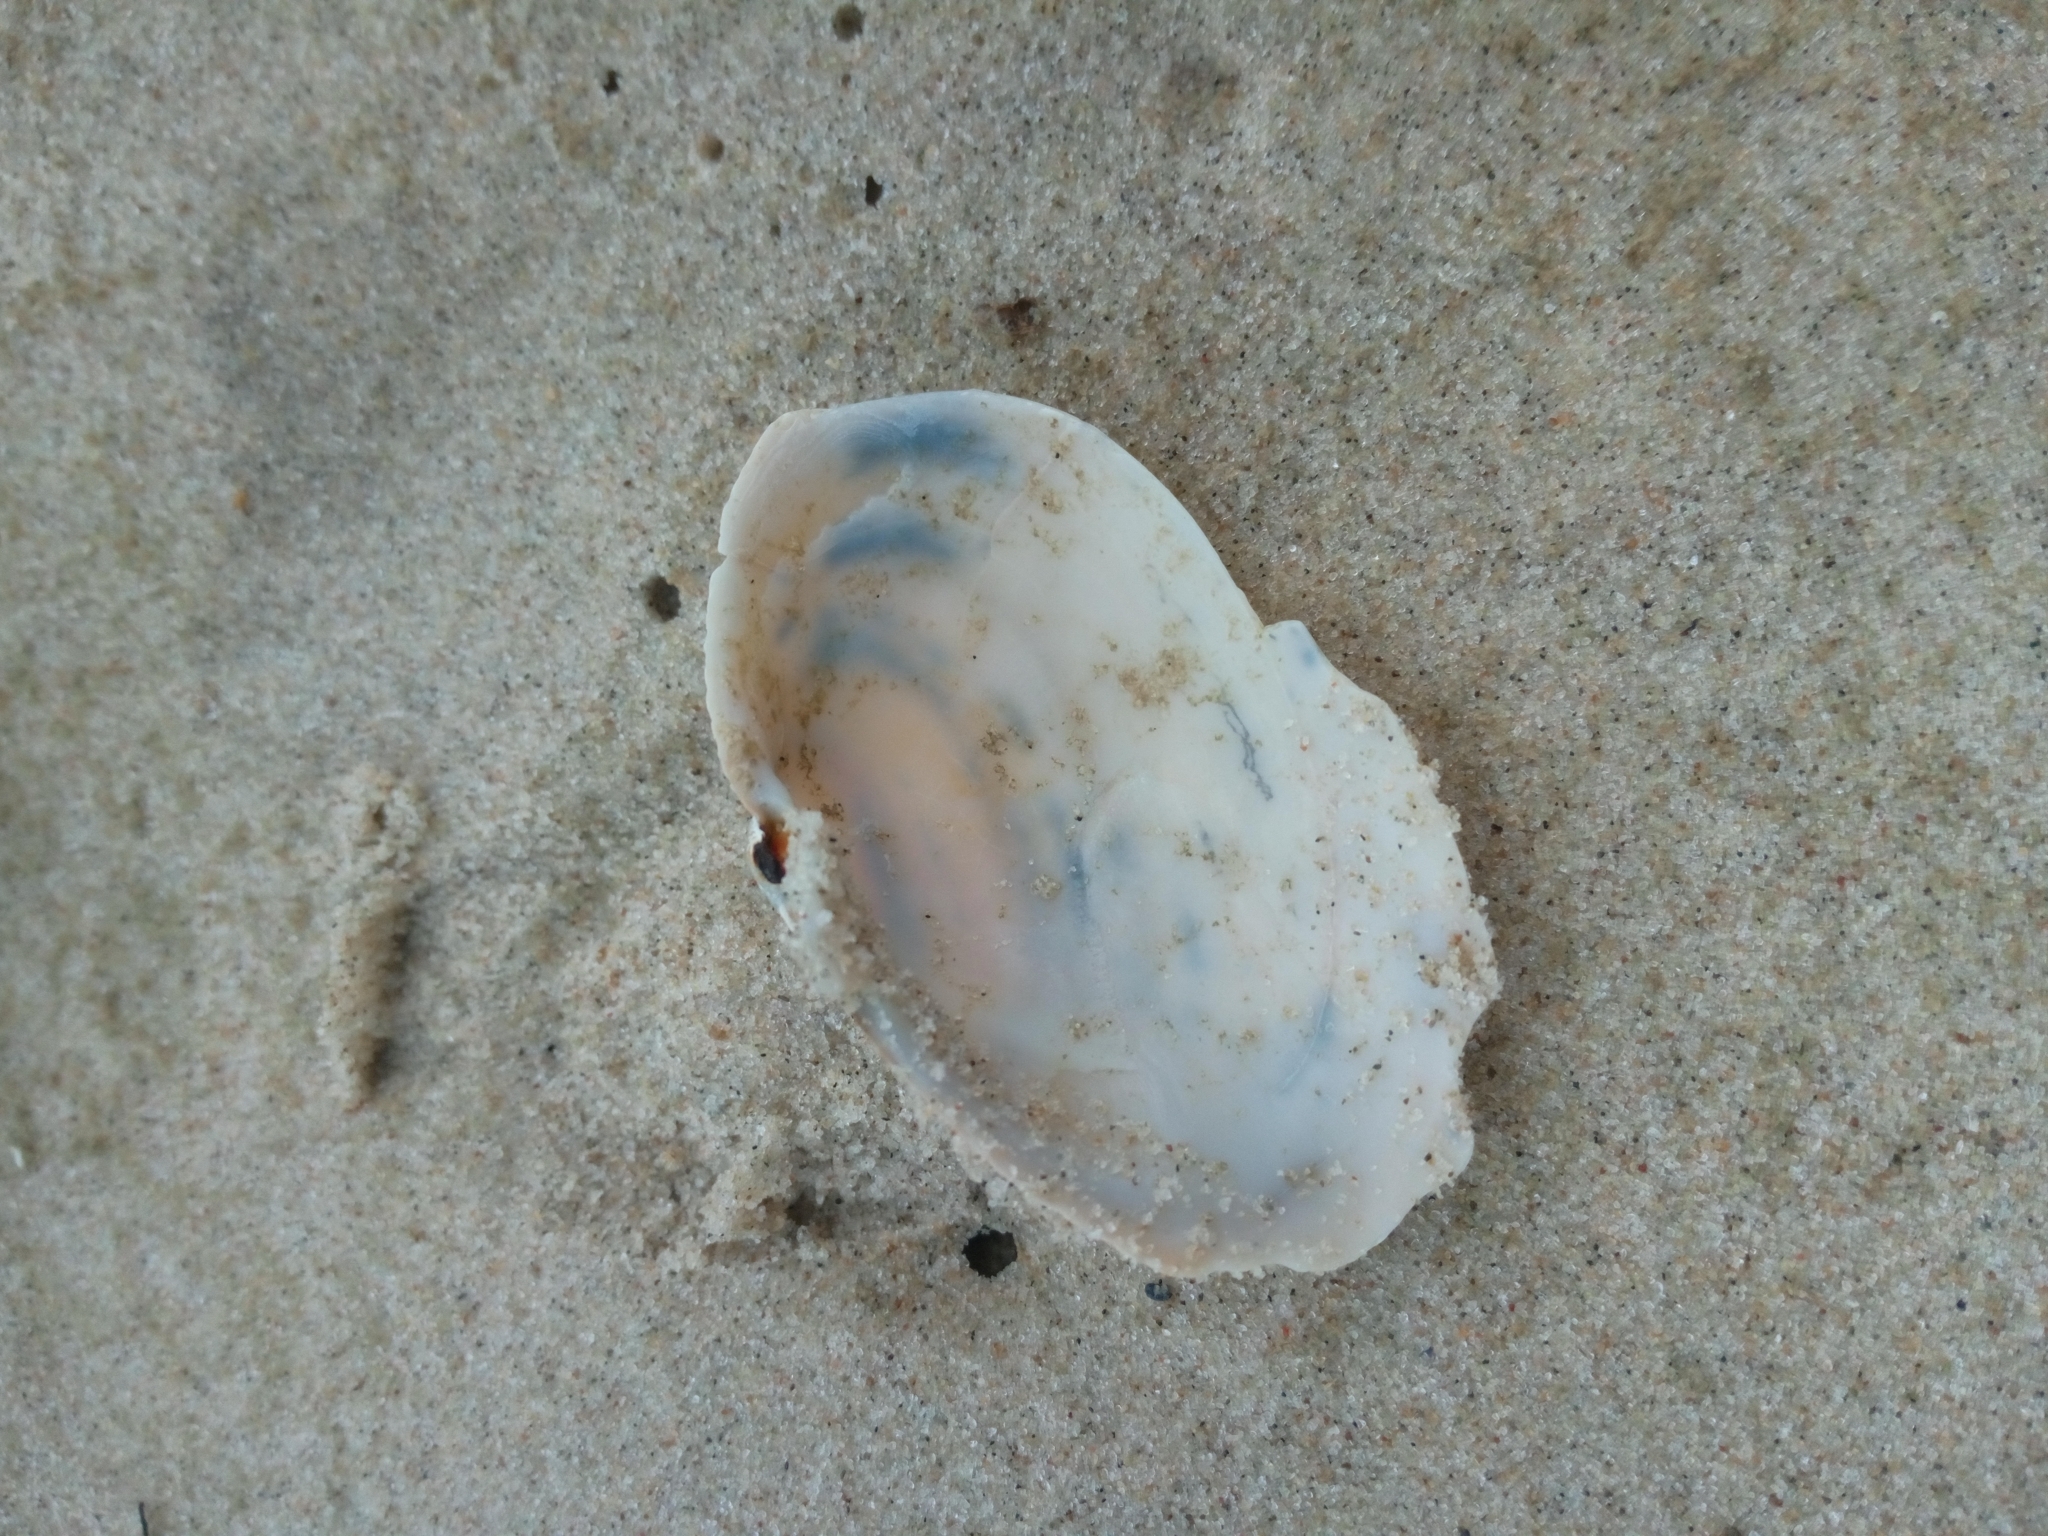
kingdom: Animalia
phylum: Mollusca
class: Bivalvia
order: Myida
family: Myidae
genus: Mya
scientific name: Mya arenaria
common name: Soft-shelled clam
